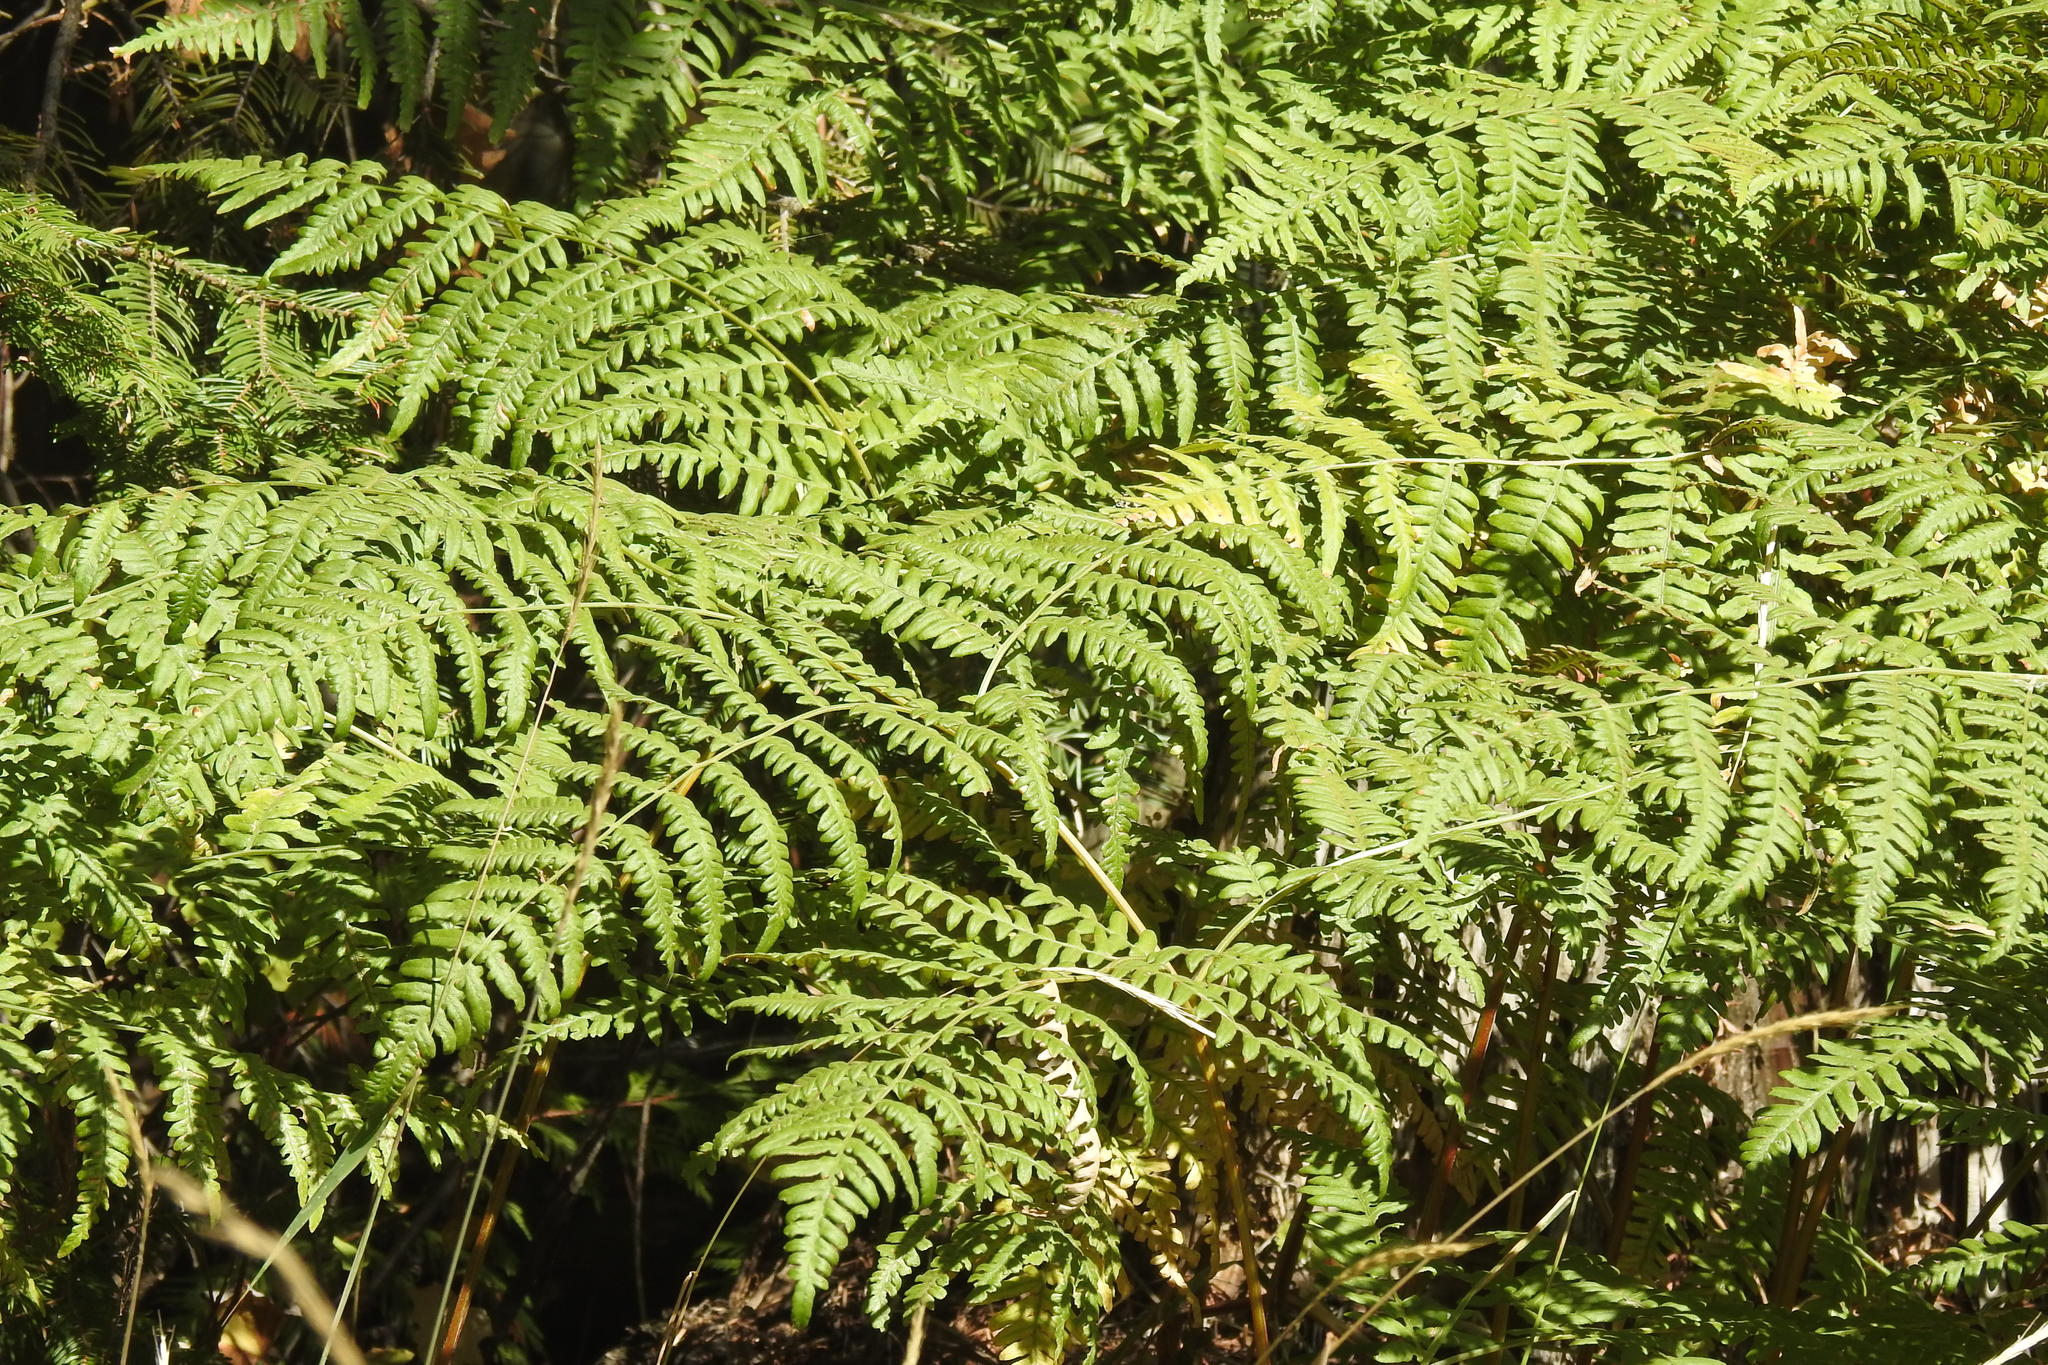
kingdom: Plantae
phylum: Tracheophyta
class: Polypodiopsida
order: Polypodiales
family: Dennstaedtiaceae
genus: Pteridium
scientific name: Pteridium aquilinum
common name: Bracken
